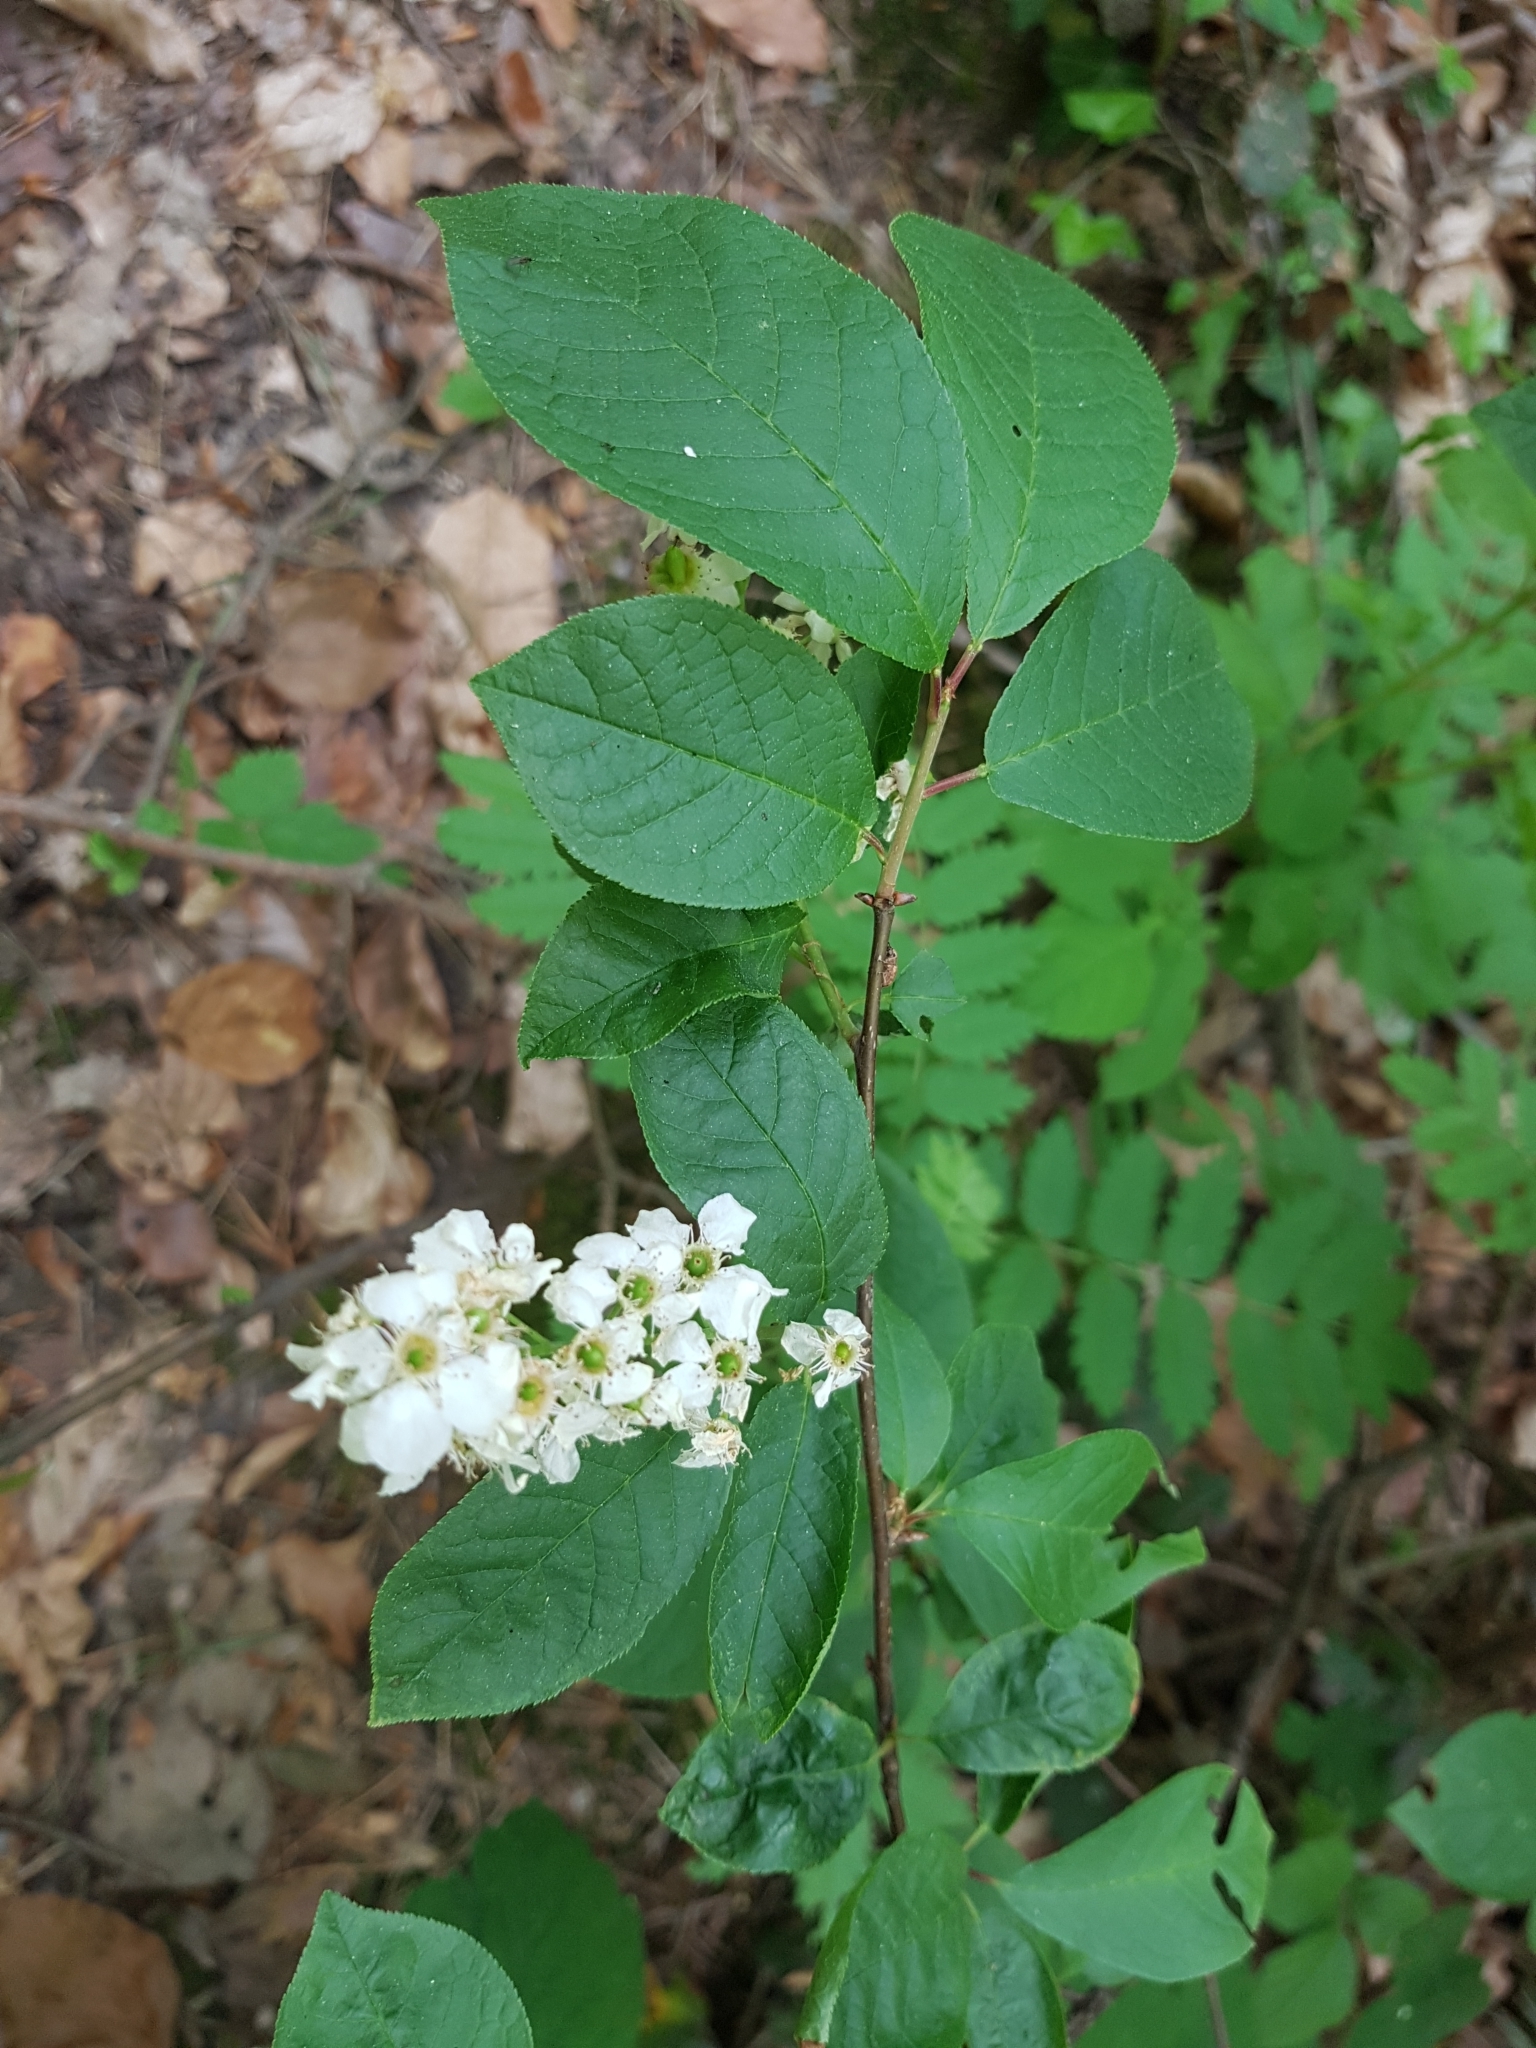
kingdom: Plantae
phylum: Tracheophyta
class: Magnoliopsida
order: Rosales
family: Rosaceae
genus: Prunus
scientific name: Prunus padus
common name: Bird cherry
